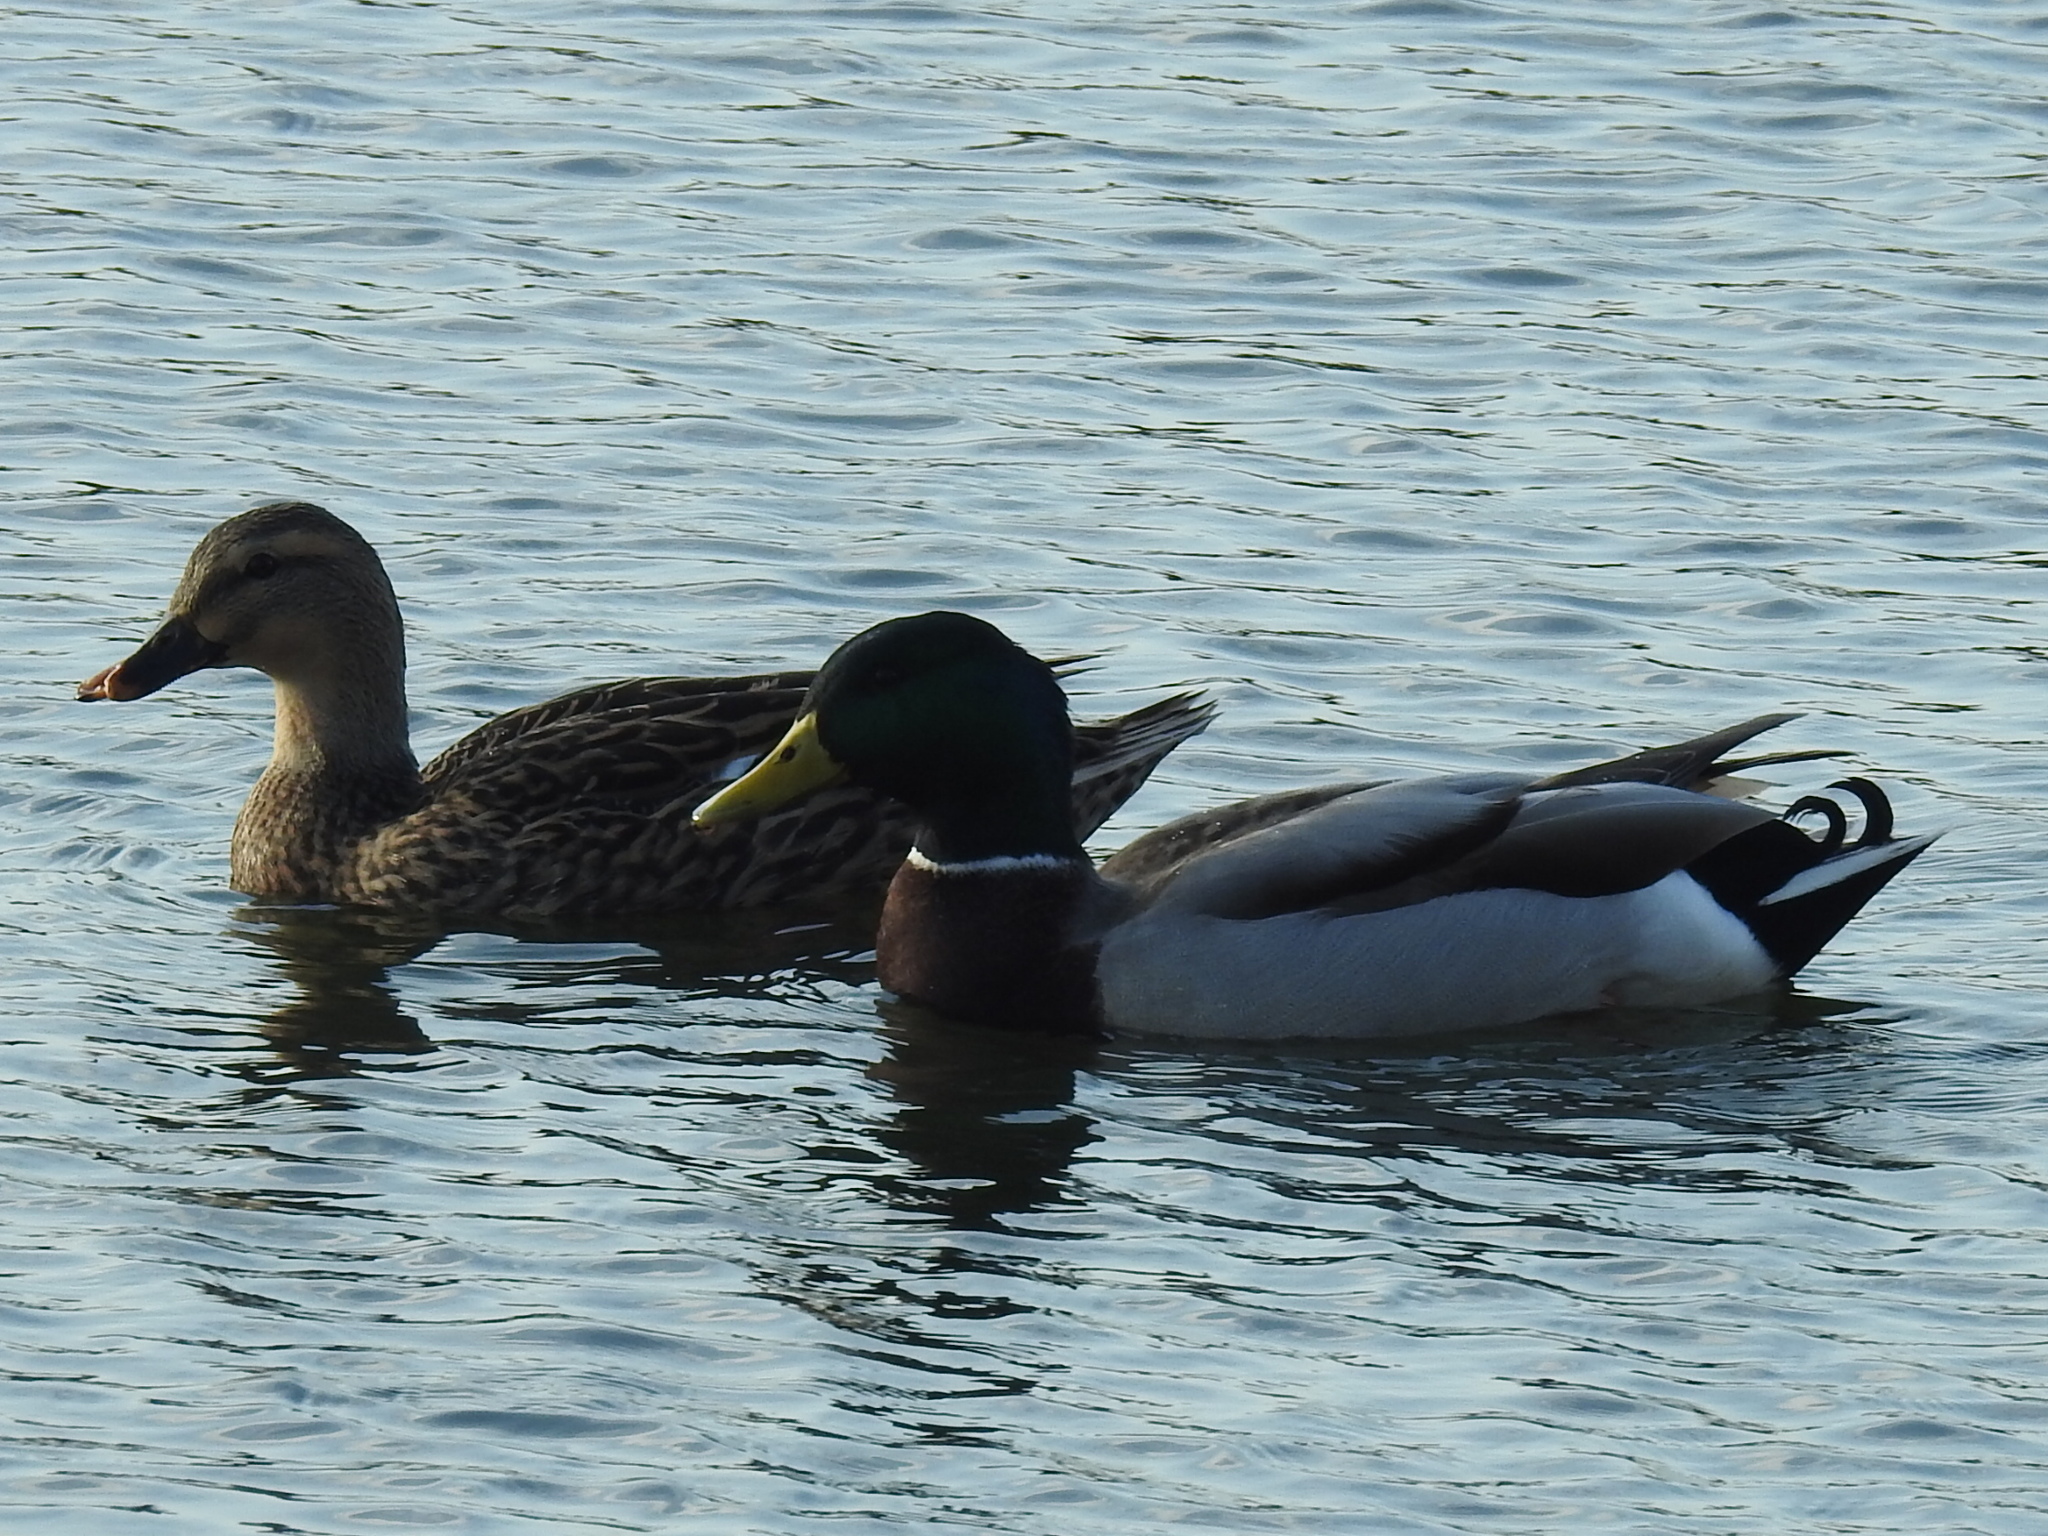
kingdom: Animalia
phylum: Chordata
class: Aves
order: Anseriformes
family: Anatidae
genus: Anas
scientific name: Anas platyrhynchos
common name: Mallard
